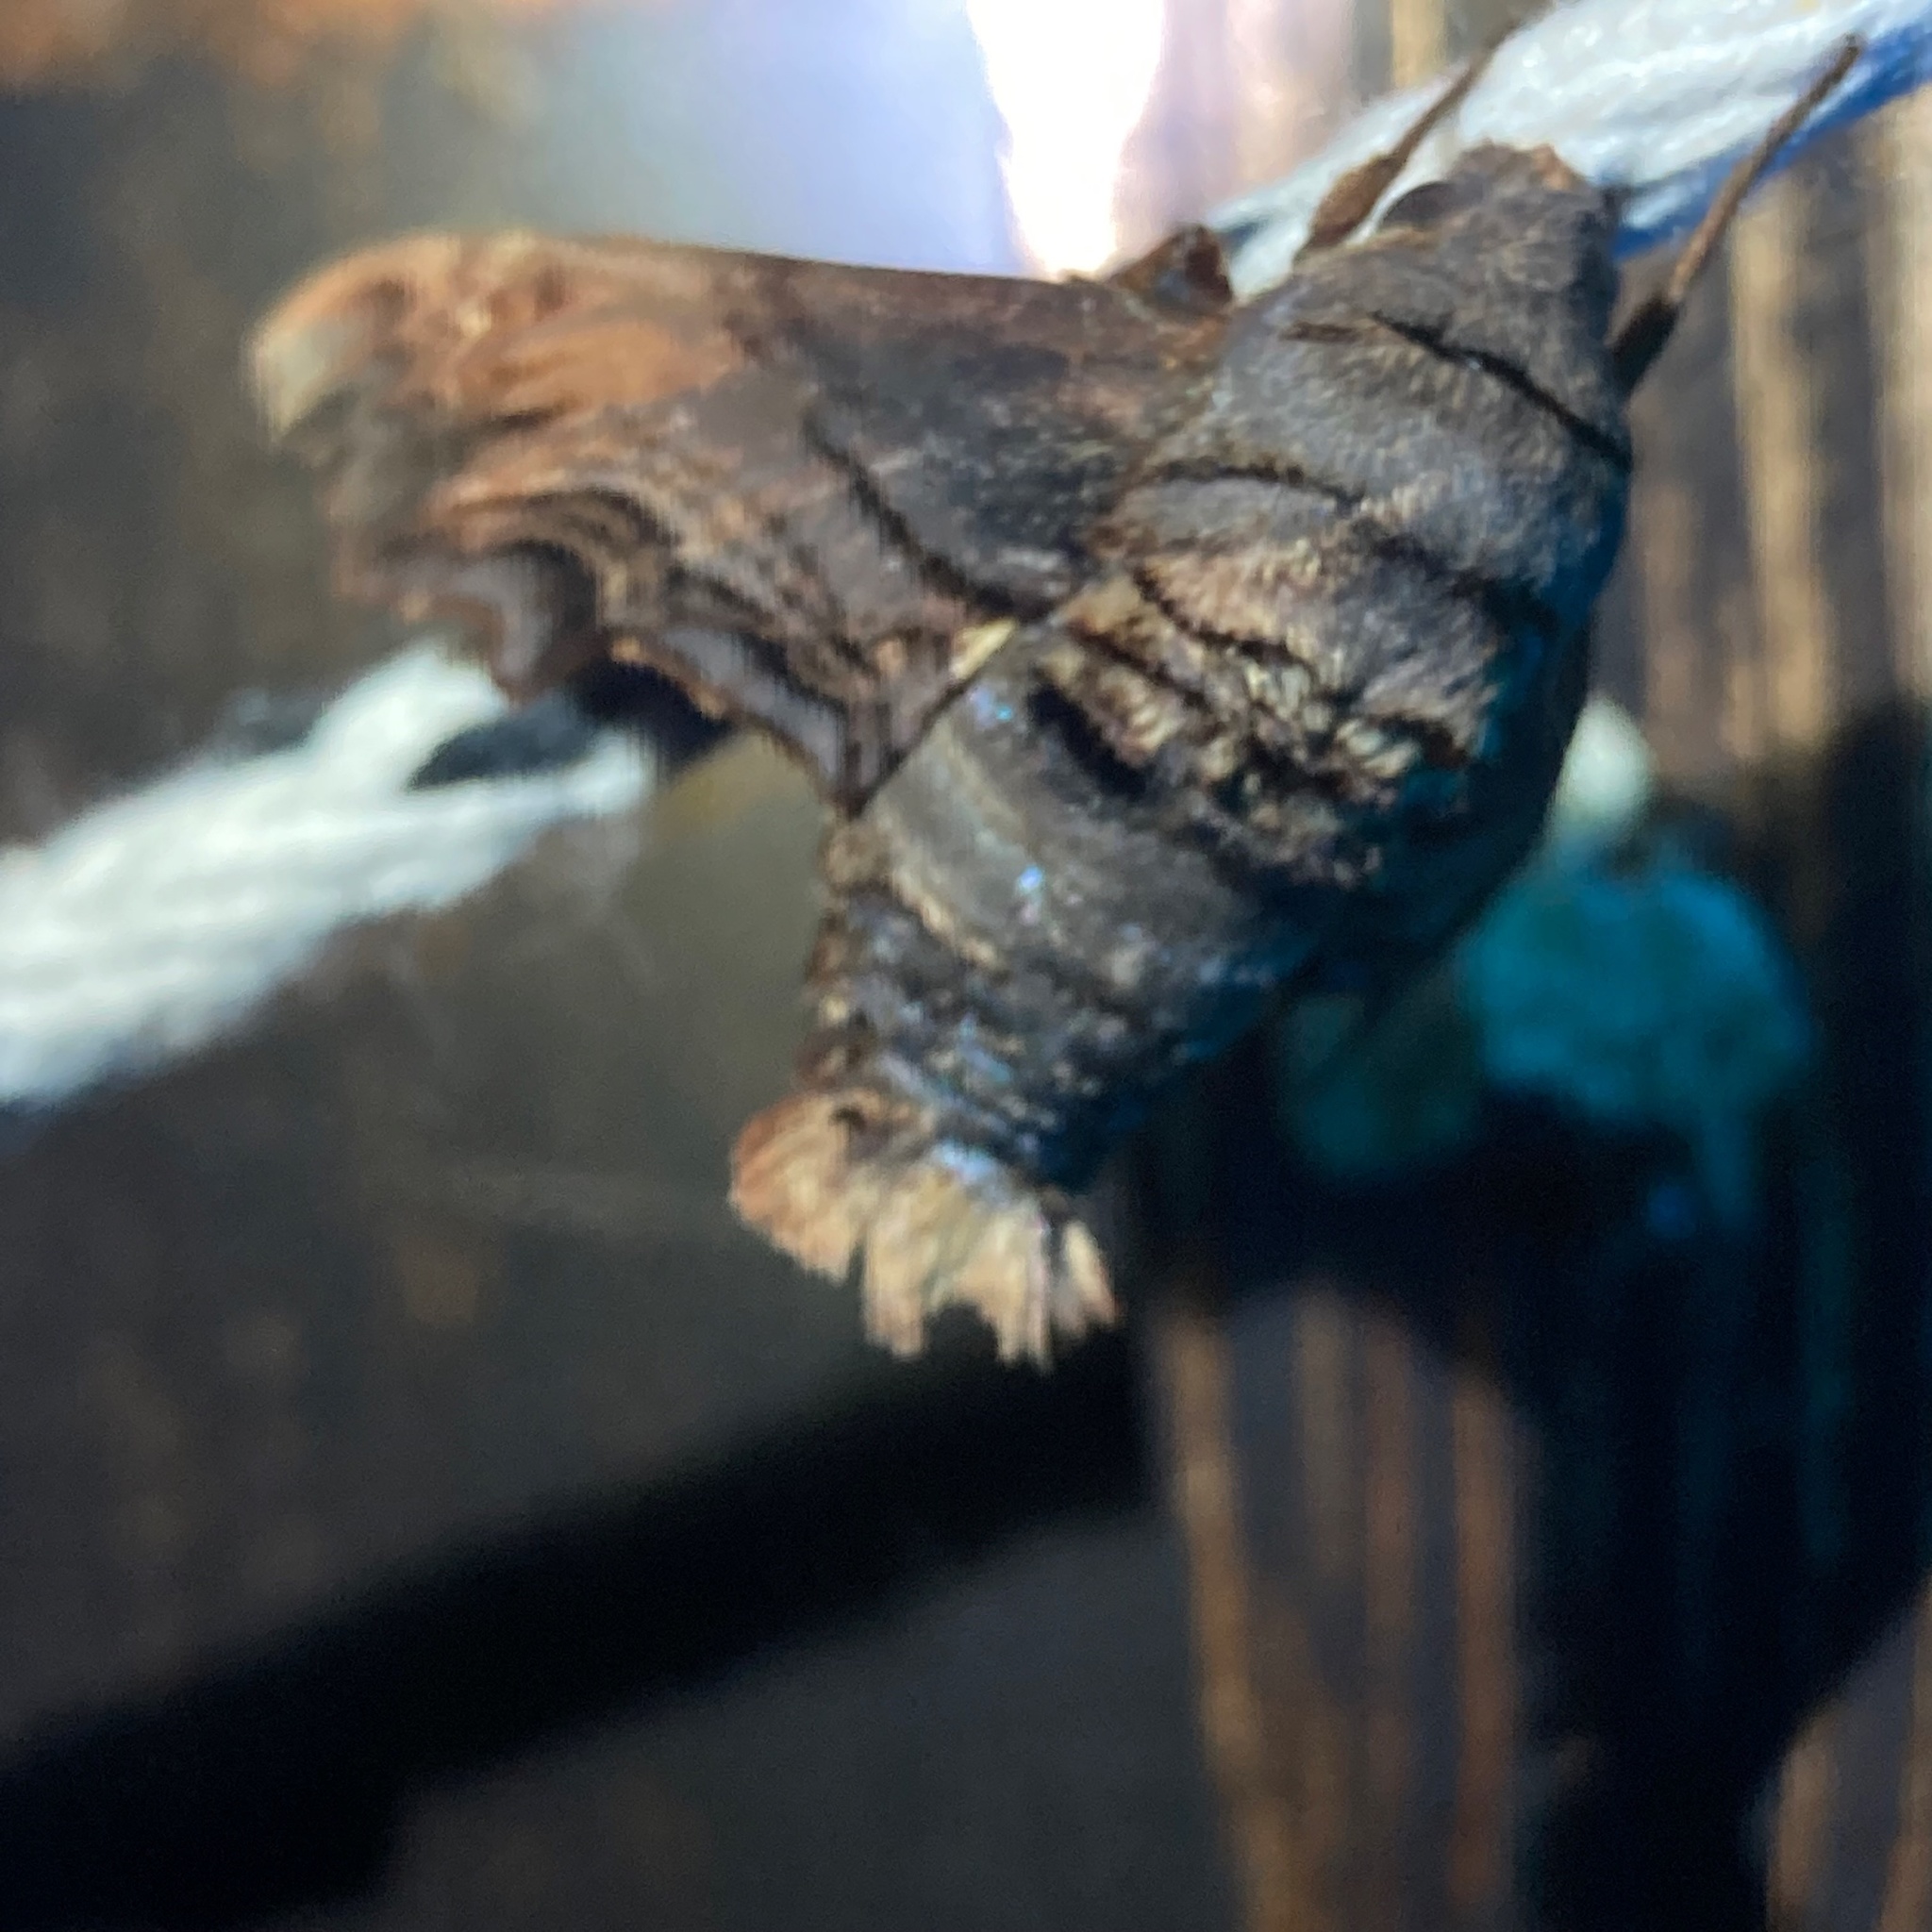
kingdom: Animalia
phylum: Arthropoda
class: Insecta
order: Lepidoptera
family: Sphingidae
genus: Sphecodina
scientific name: Sphecodina abbottii
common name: Abbott's sphinx
